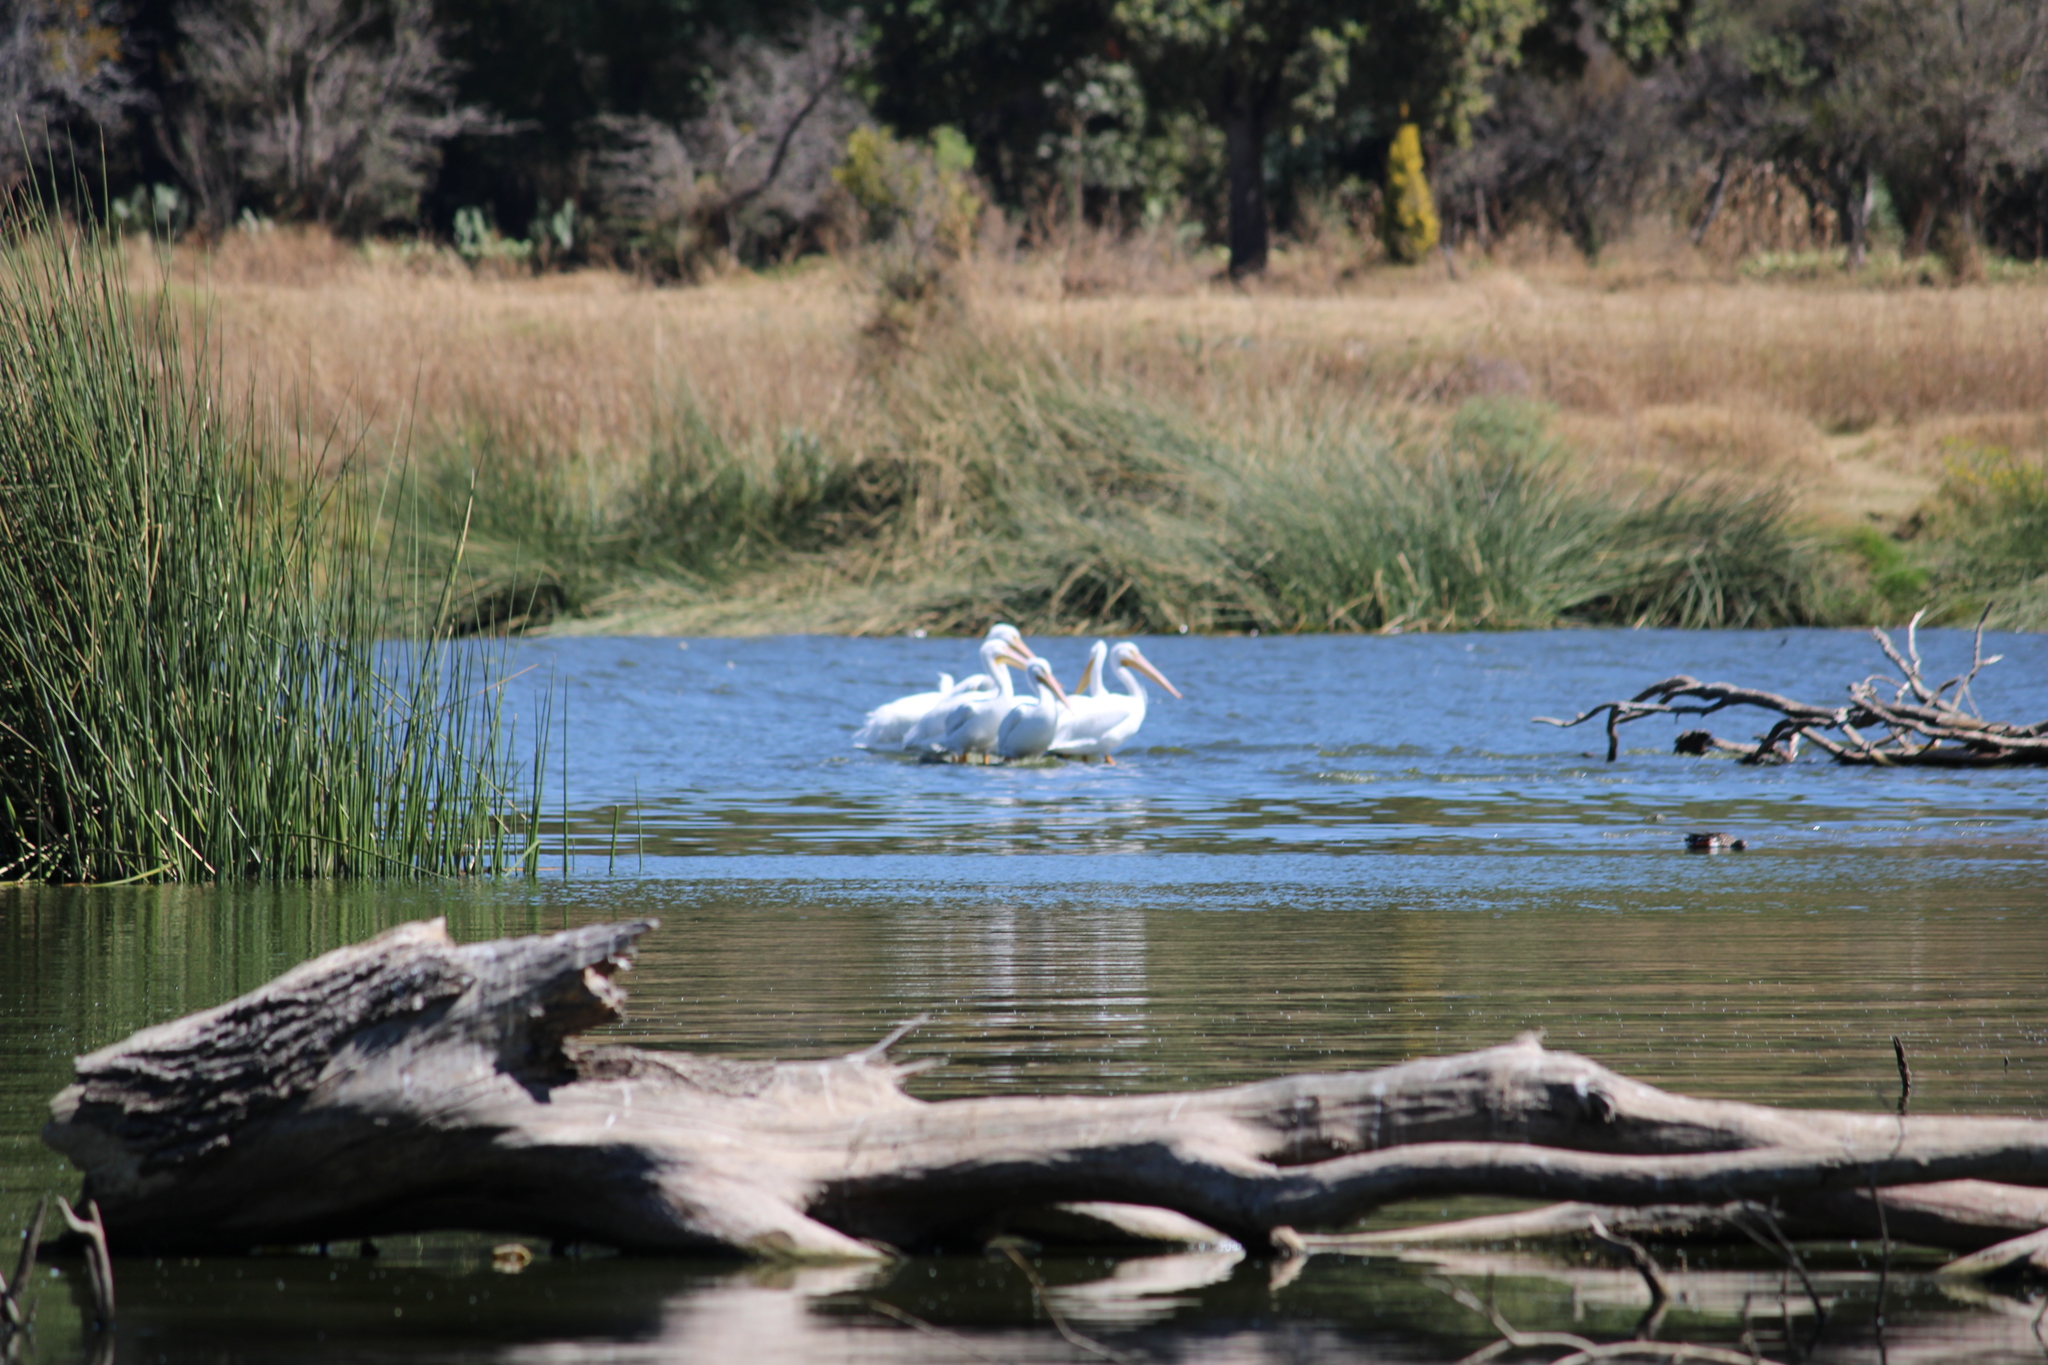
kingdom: Animalia
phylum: Chordata
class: Aves
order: Pelecaniformes
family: Pelecanidae
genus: Pelecanus
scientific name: Pelecanus erythrorhynchos
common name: American white pelican
